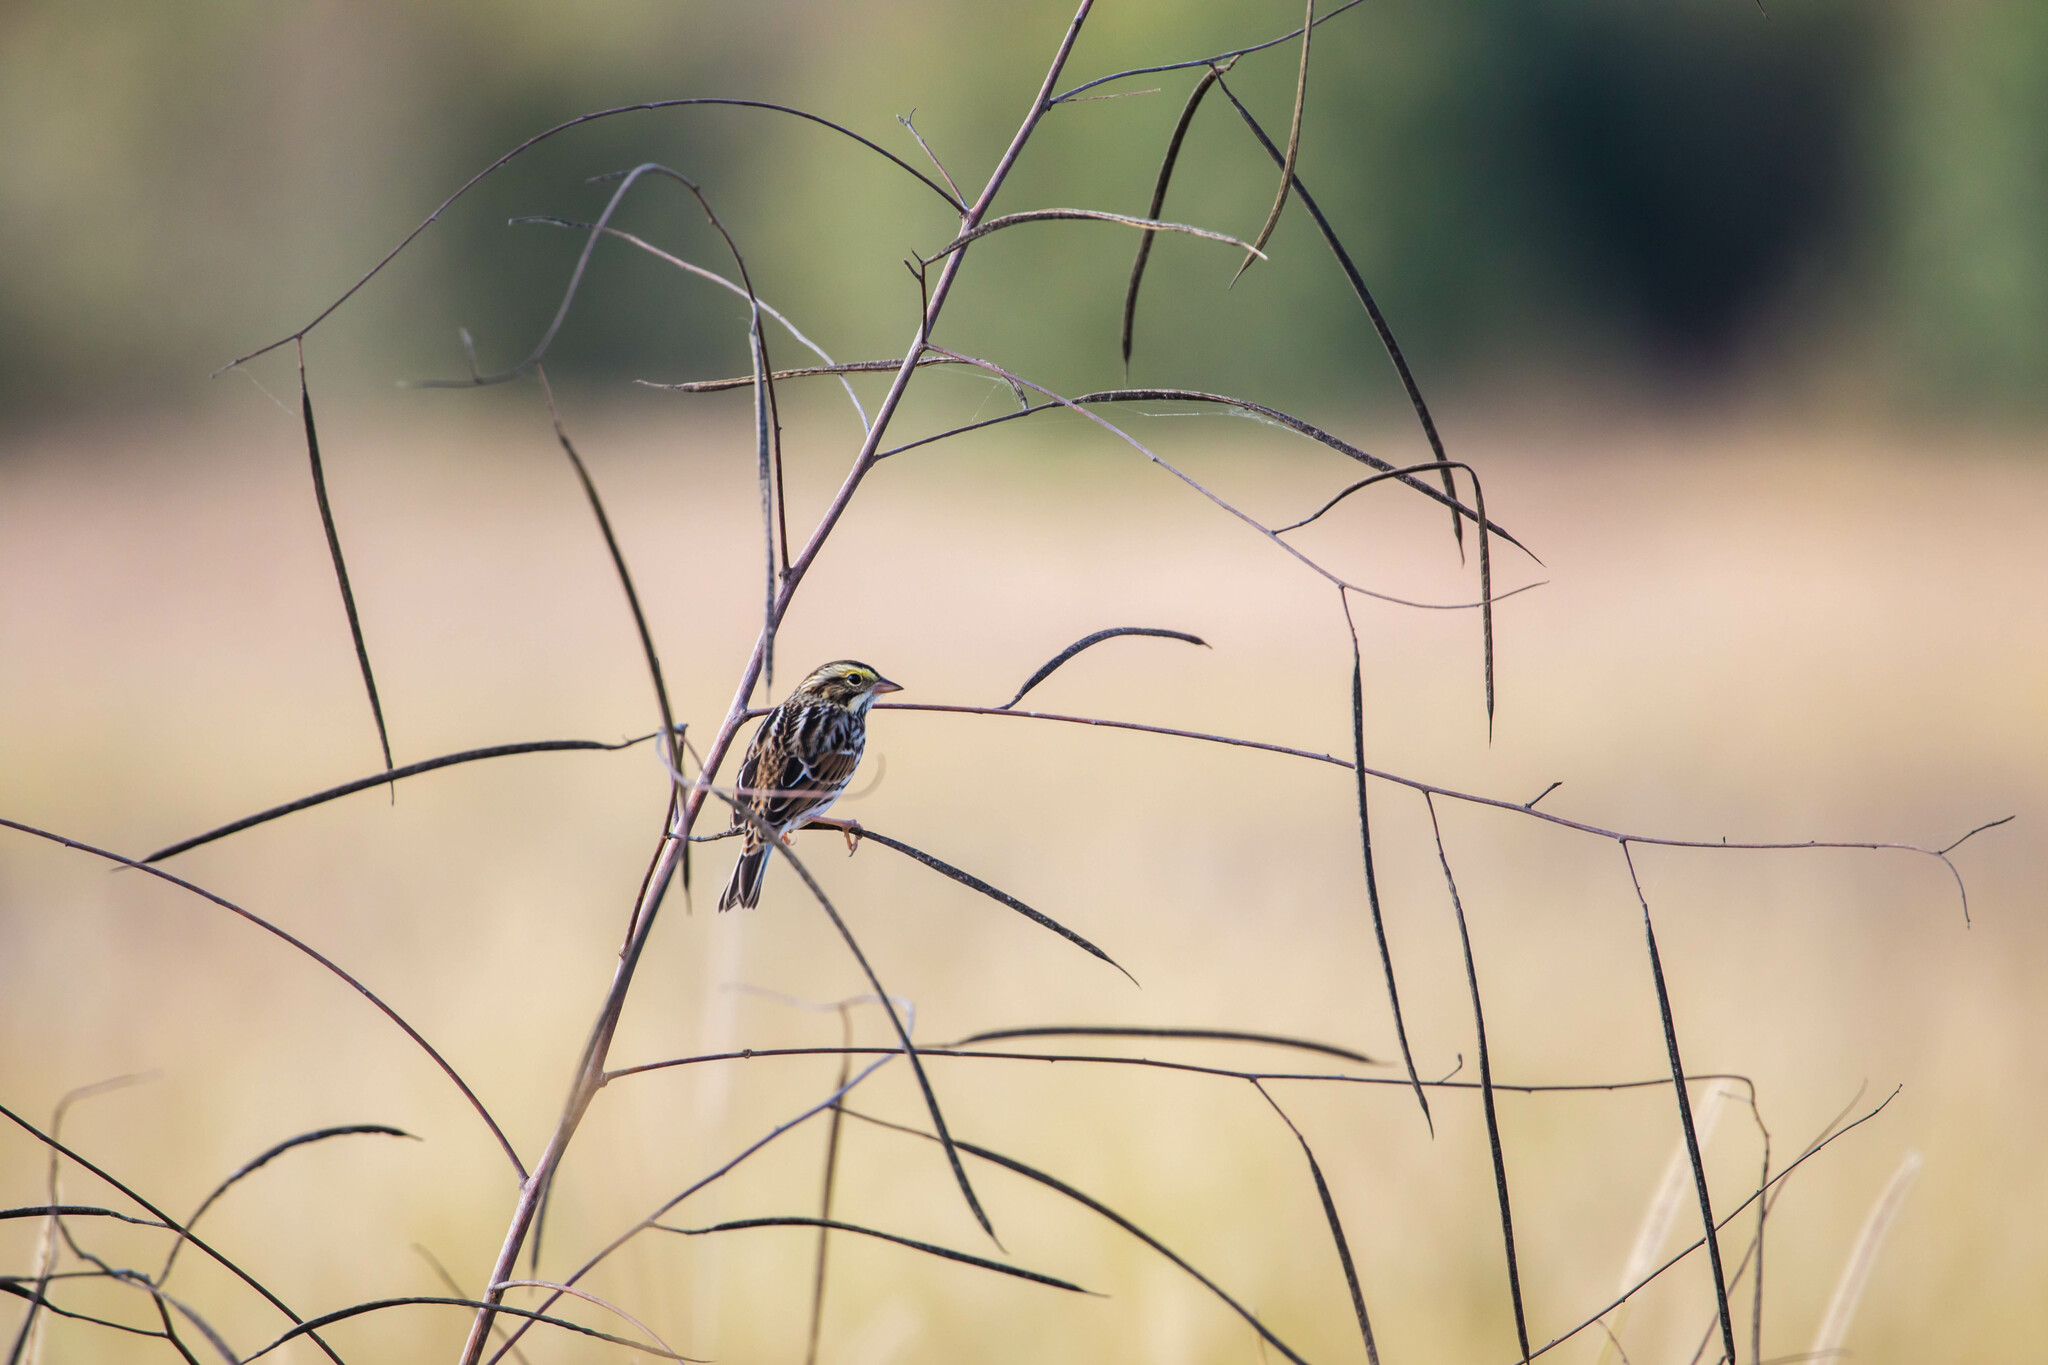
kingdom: Animalia
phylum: Chordata
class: Aves
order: Passeriformes
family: Passerellidae
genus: Passerculus
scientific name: Passerculus sandwichensis
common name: Savannah sparrow
